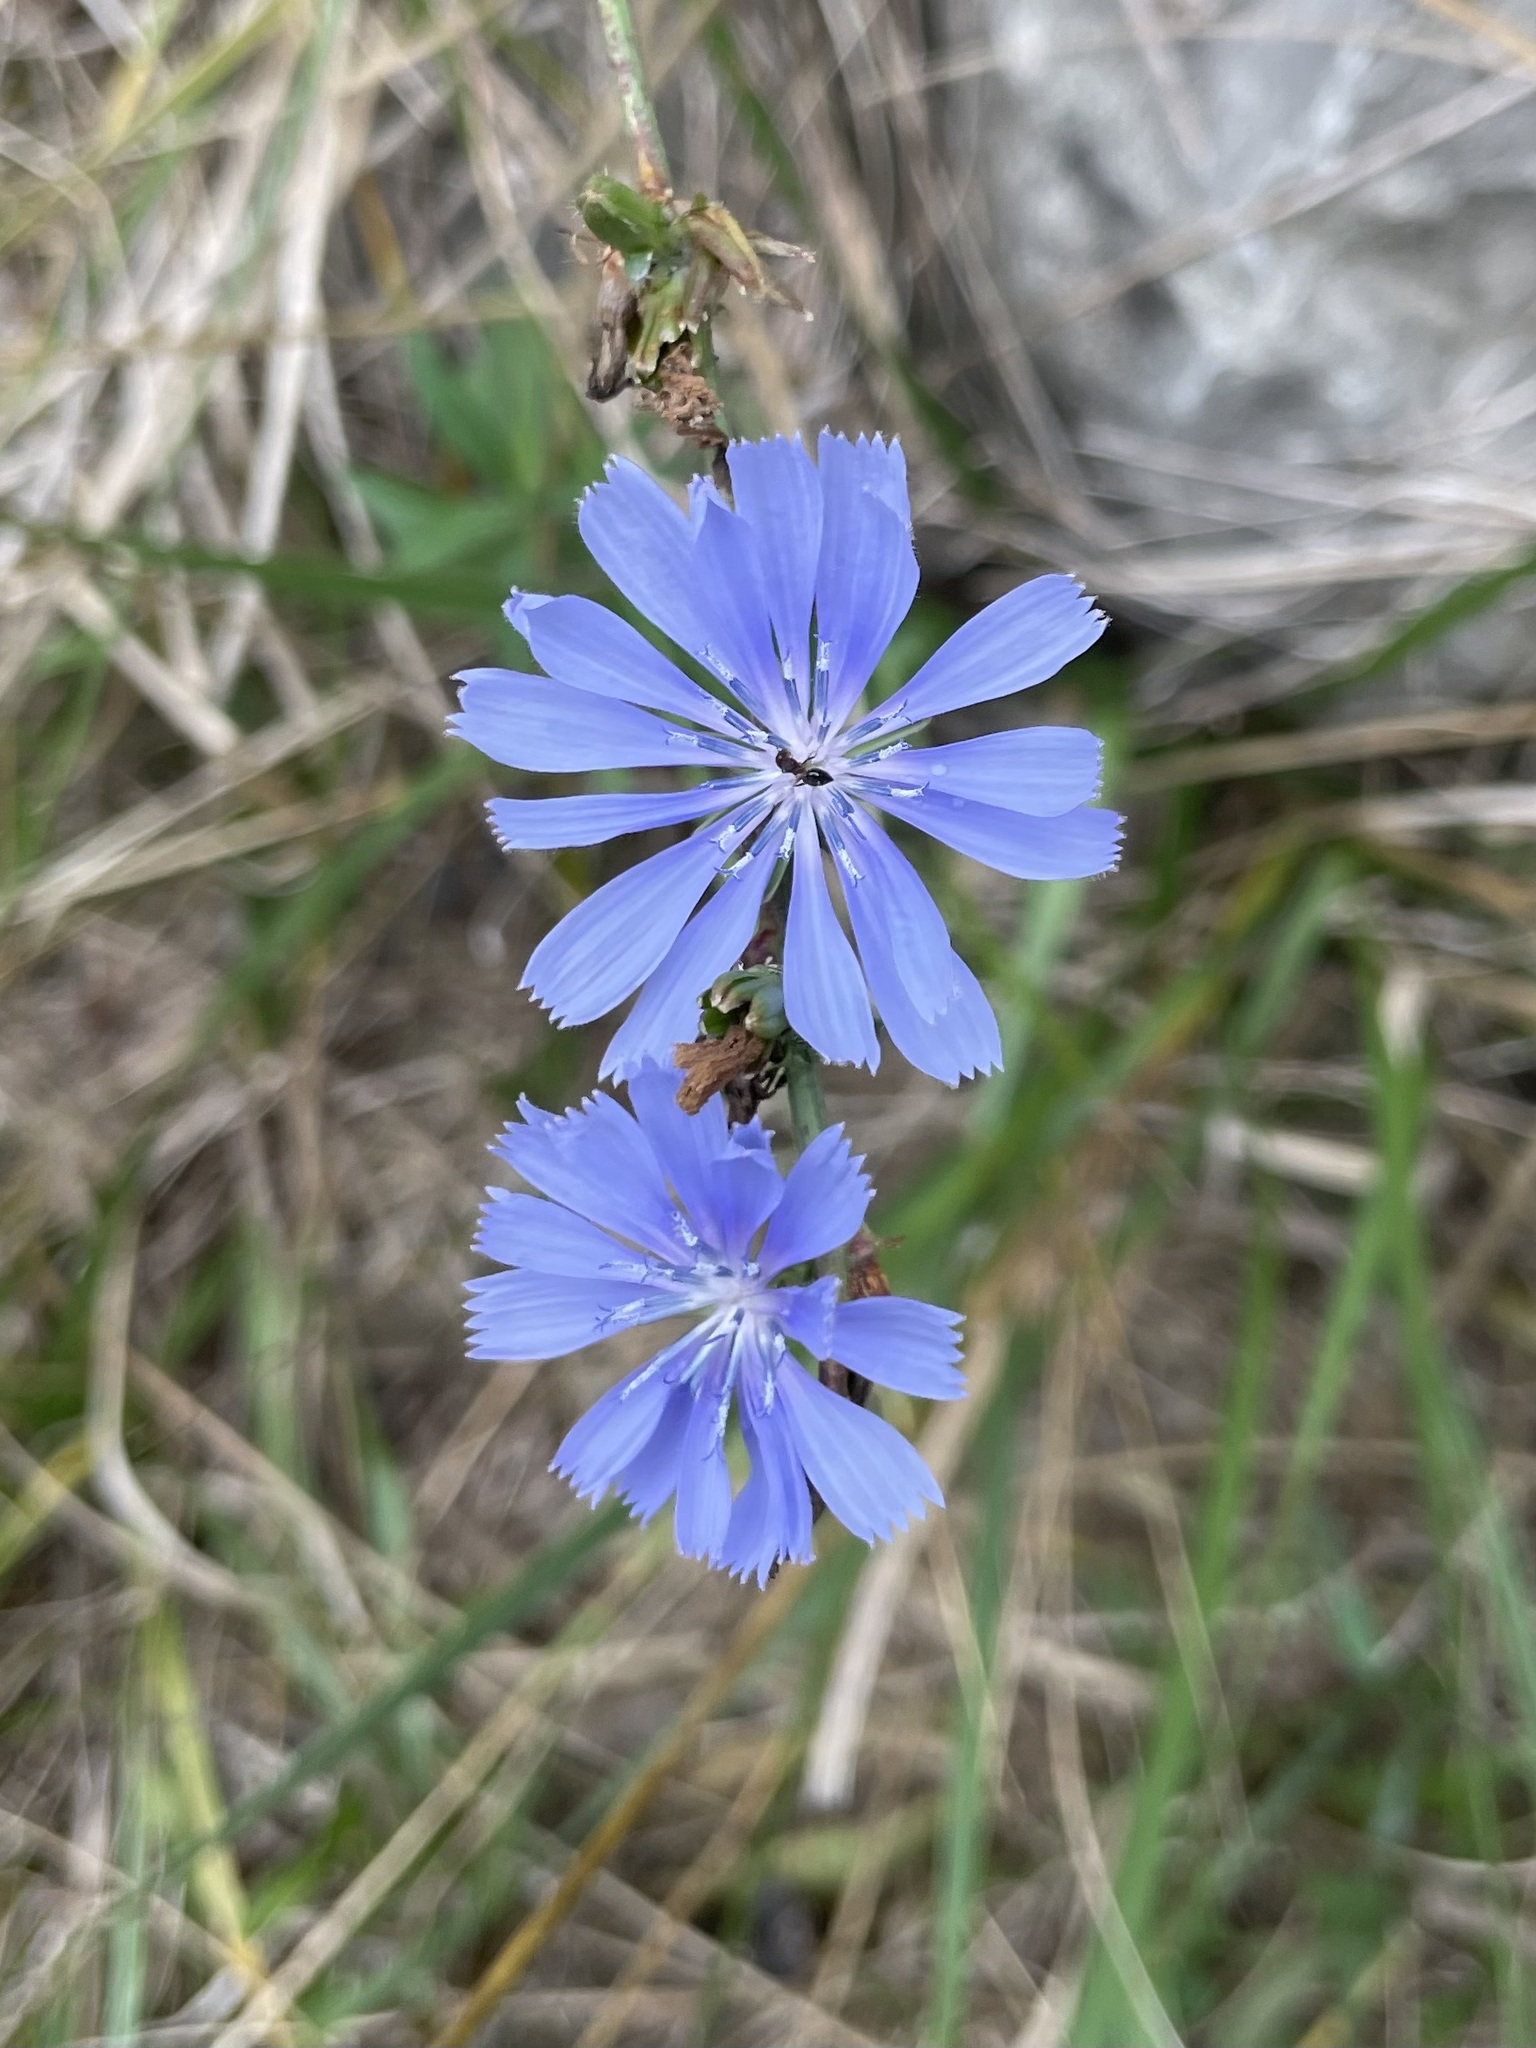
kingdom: Plantae
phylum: Tracheophyta
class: Magnoliopsida
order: Asterales
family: Asteraceae
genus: Cichorium
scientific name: Cichorium intybus
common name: Chicory
